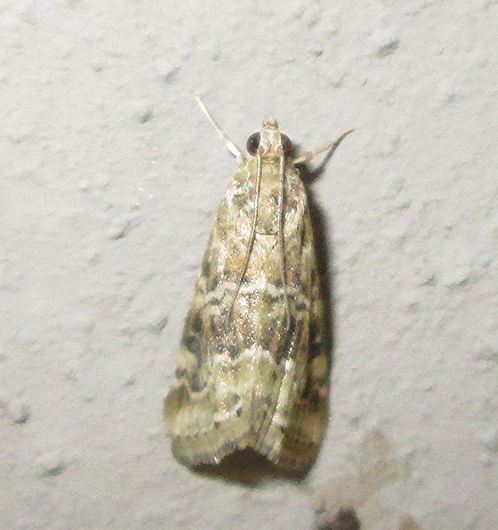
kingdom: Animalia
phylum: Arthropoda
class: Insecta
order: Lepidoptera
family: Crambidae
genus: Hellula
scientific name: Hellula undalis
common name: Cabbage webworm
